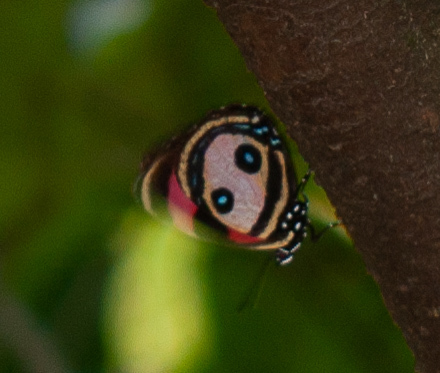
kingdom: Animalia
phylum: Arthropoda
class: Insecta
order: Lepidoptera
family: Nymphalidae
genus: Catagramma
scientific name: Catagramma Callicore pitheas
